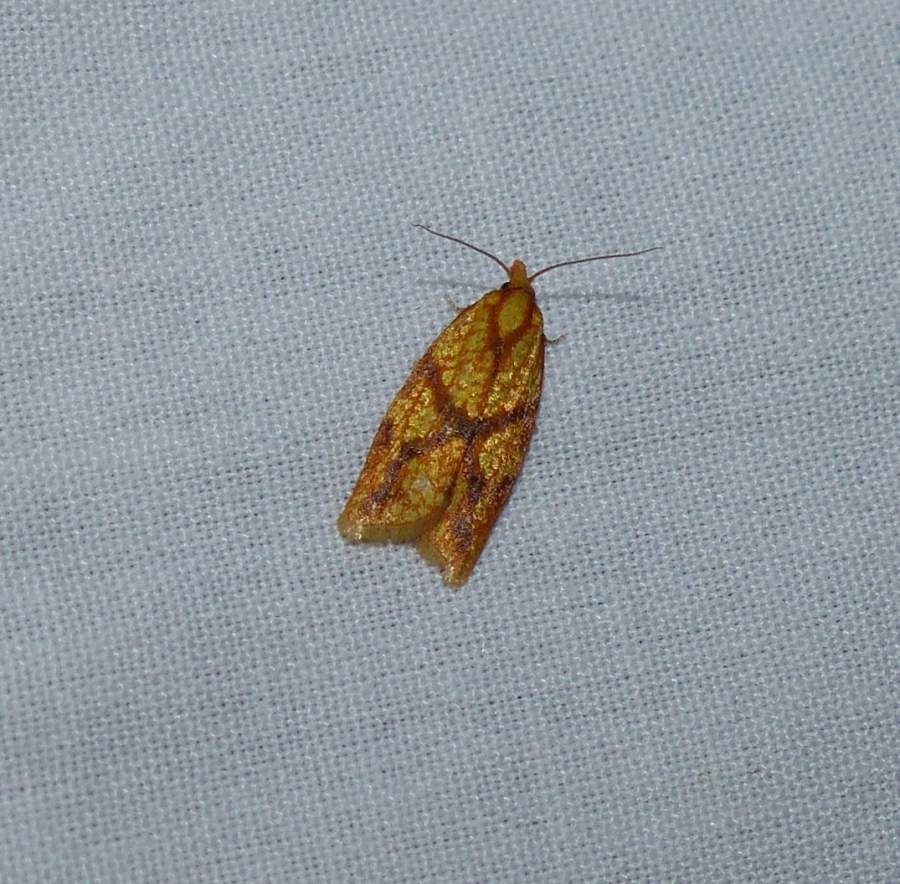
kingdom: Animalia
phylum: Arthropoda
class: Insecta
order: Lepidoptera
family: Tortricidae
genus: Sparganothis
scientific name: Sparganothis sulfureana
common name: Sparganothis fruitworm moth
